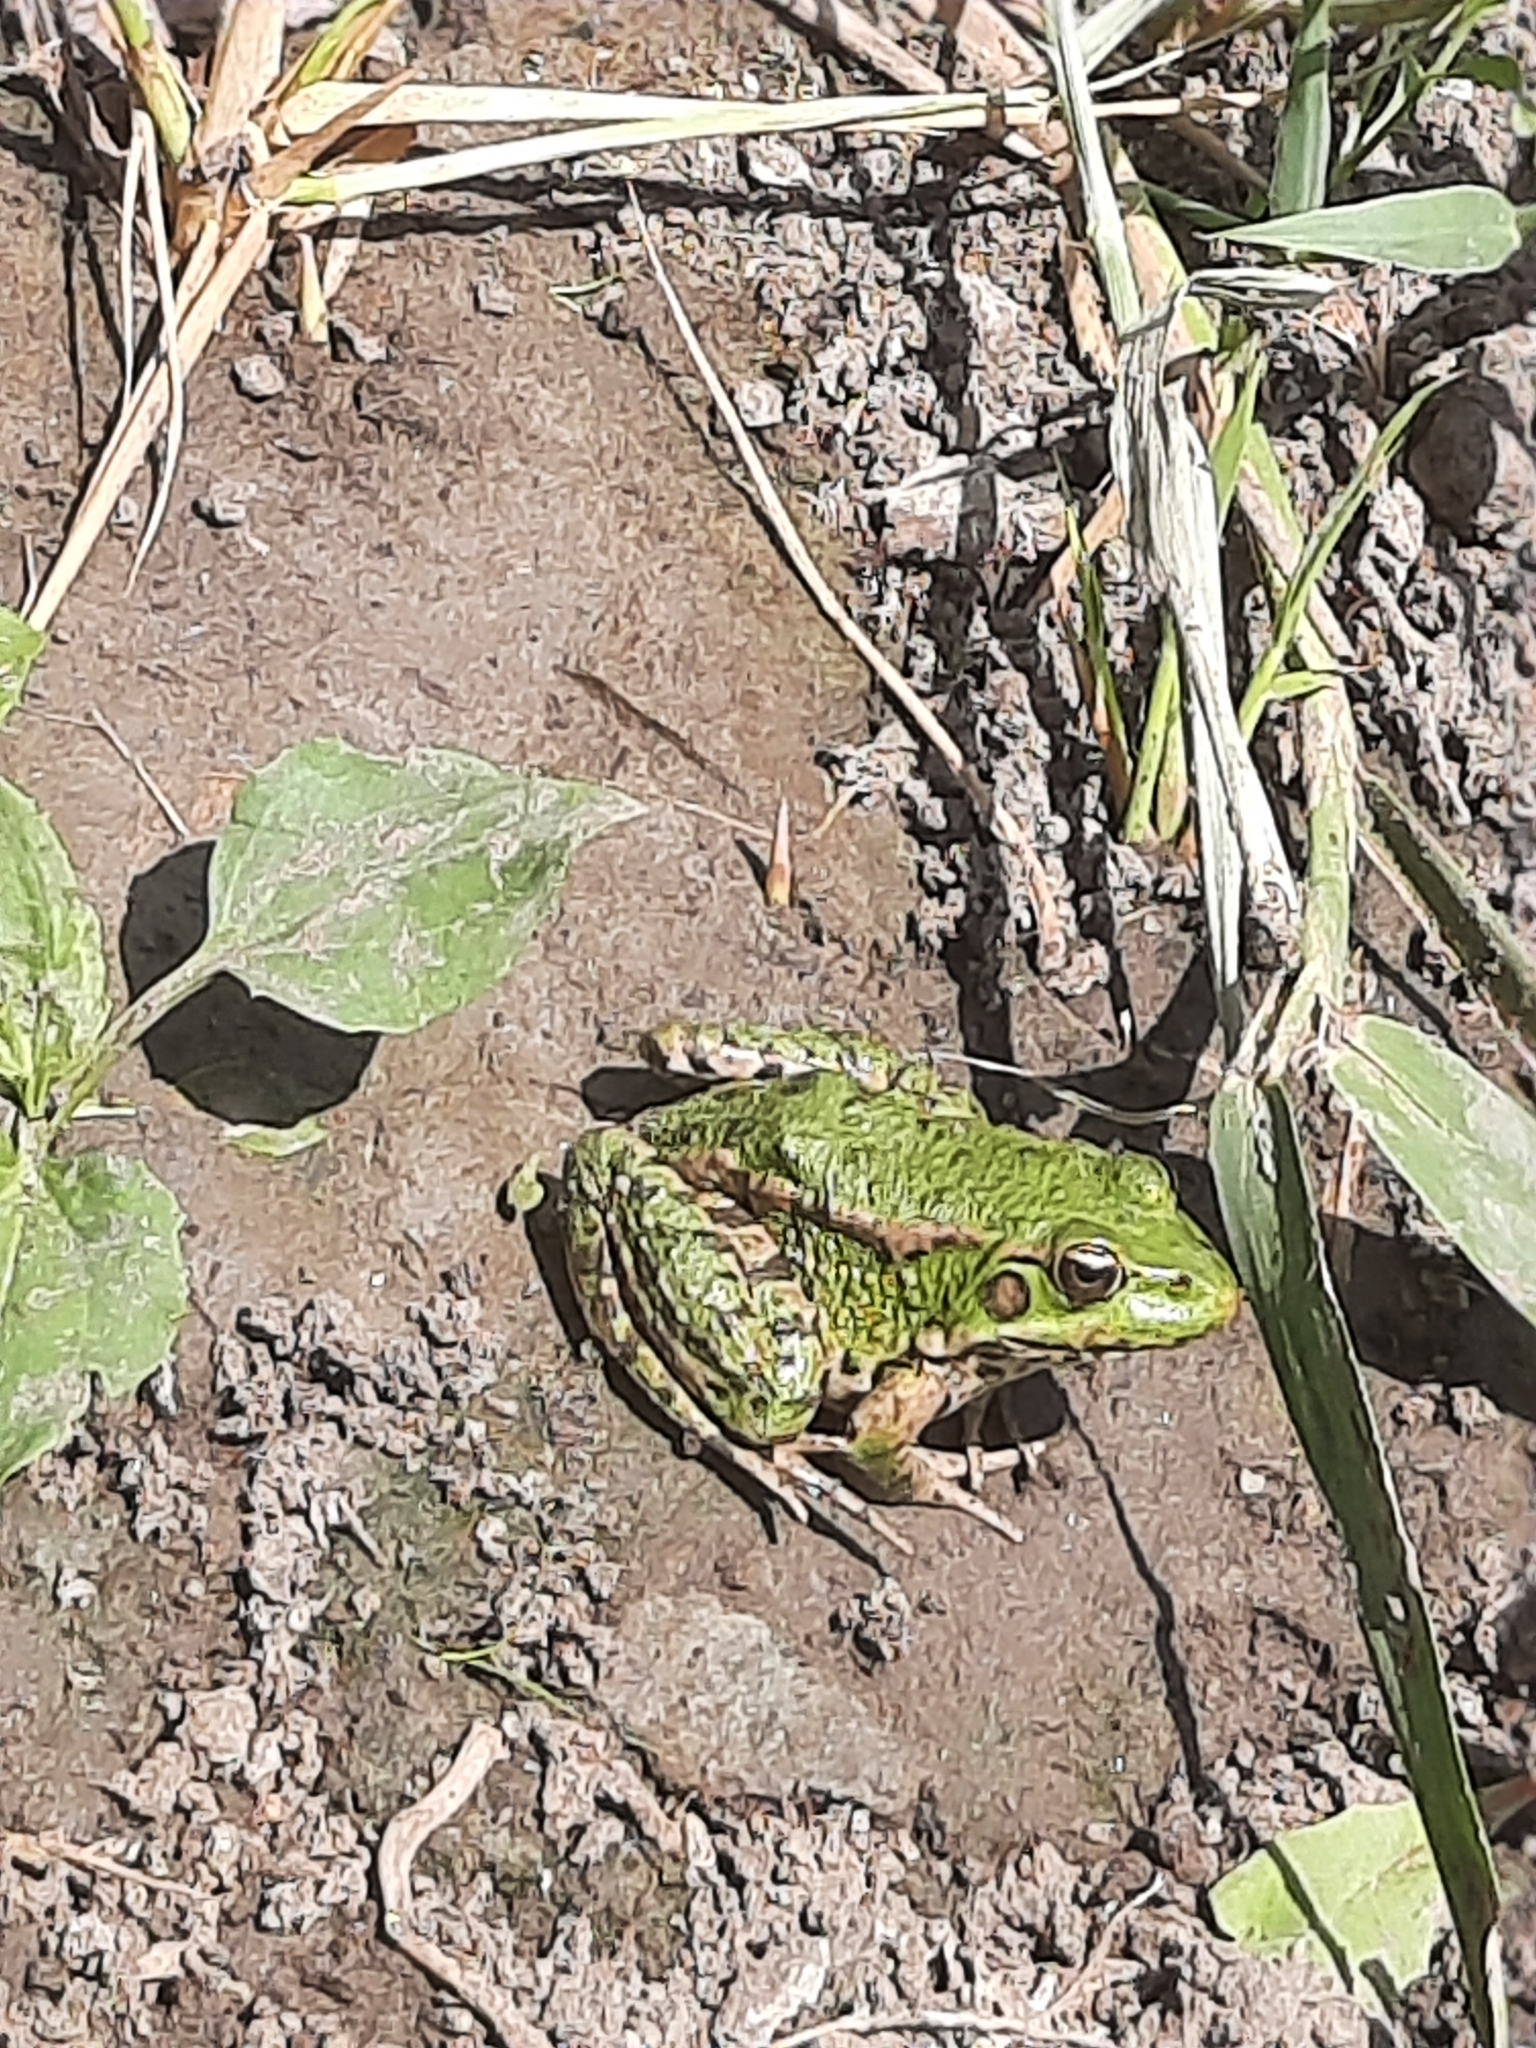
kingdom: Animalia
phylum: Chordata
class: Amphibia
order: Anura
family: Ranidae
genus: Pelophylax
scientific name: Pelophylax ridibundus
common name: Marsh frog
